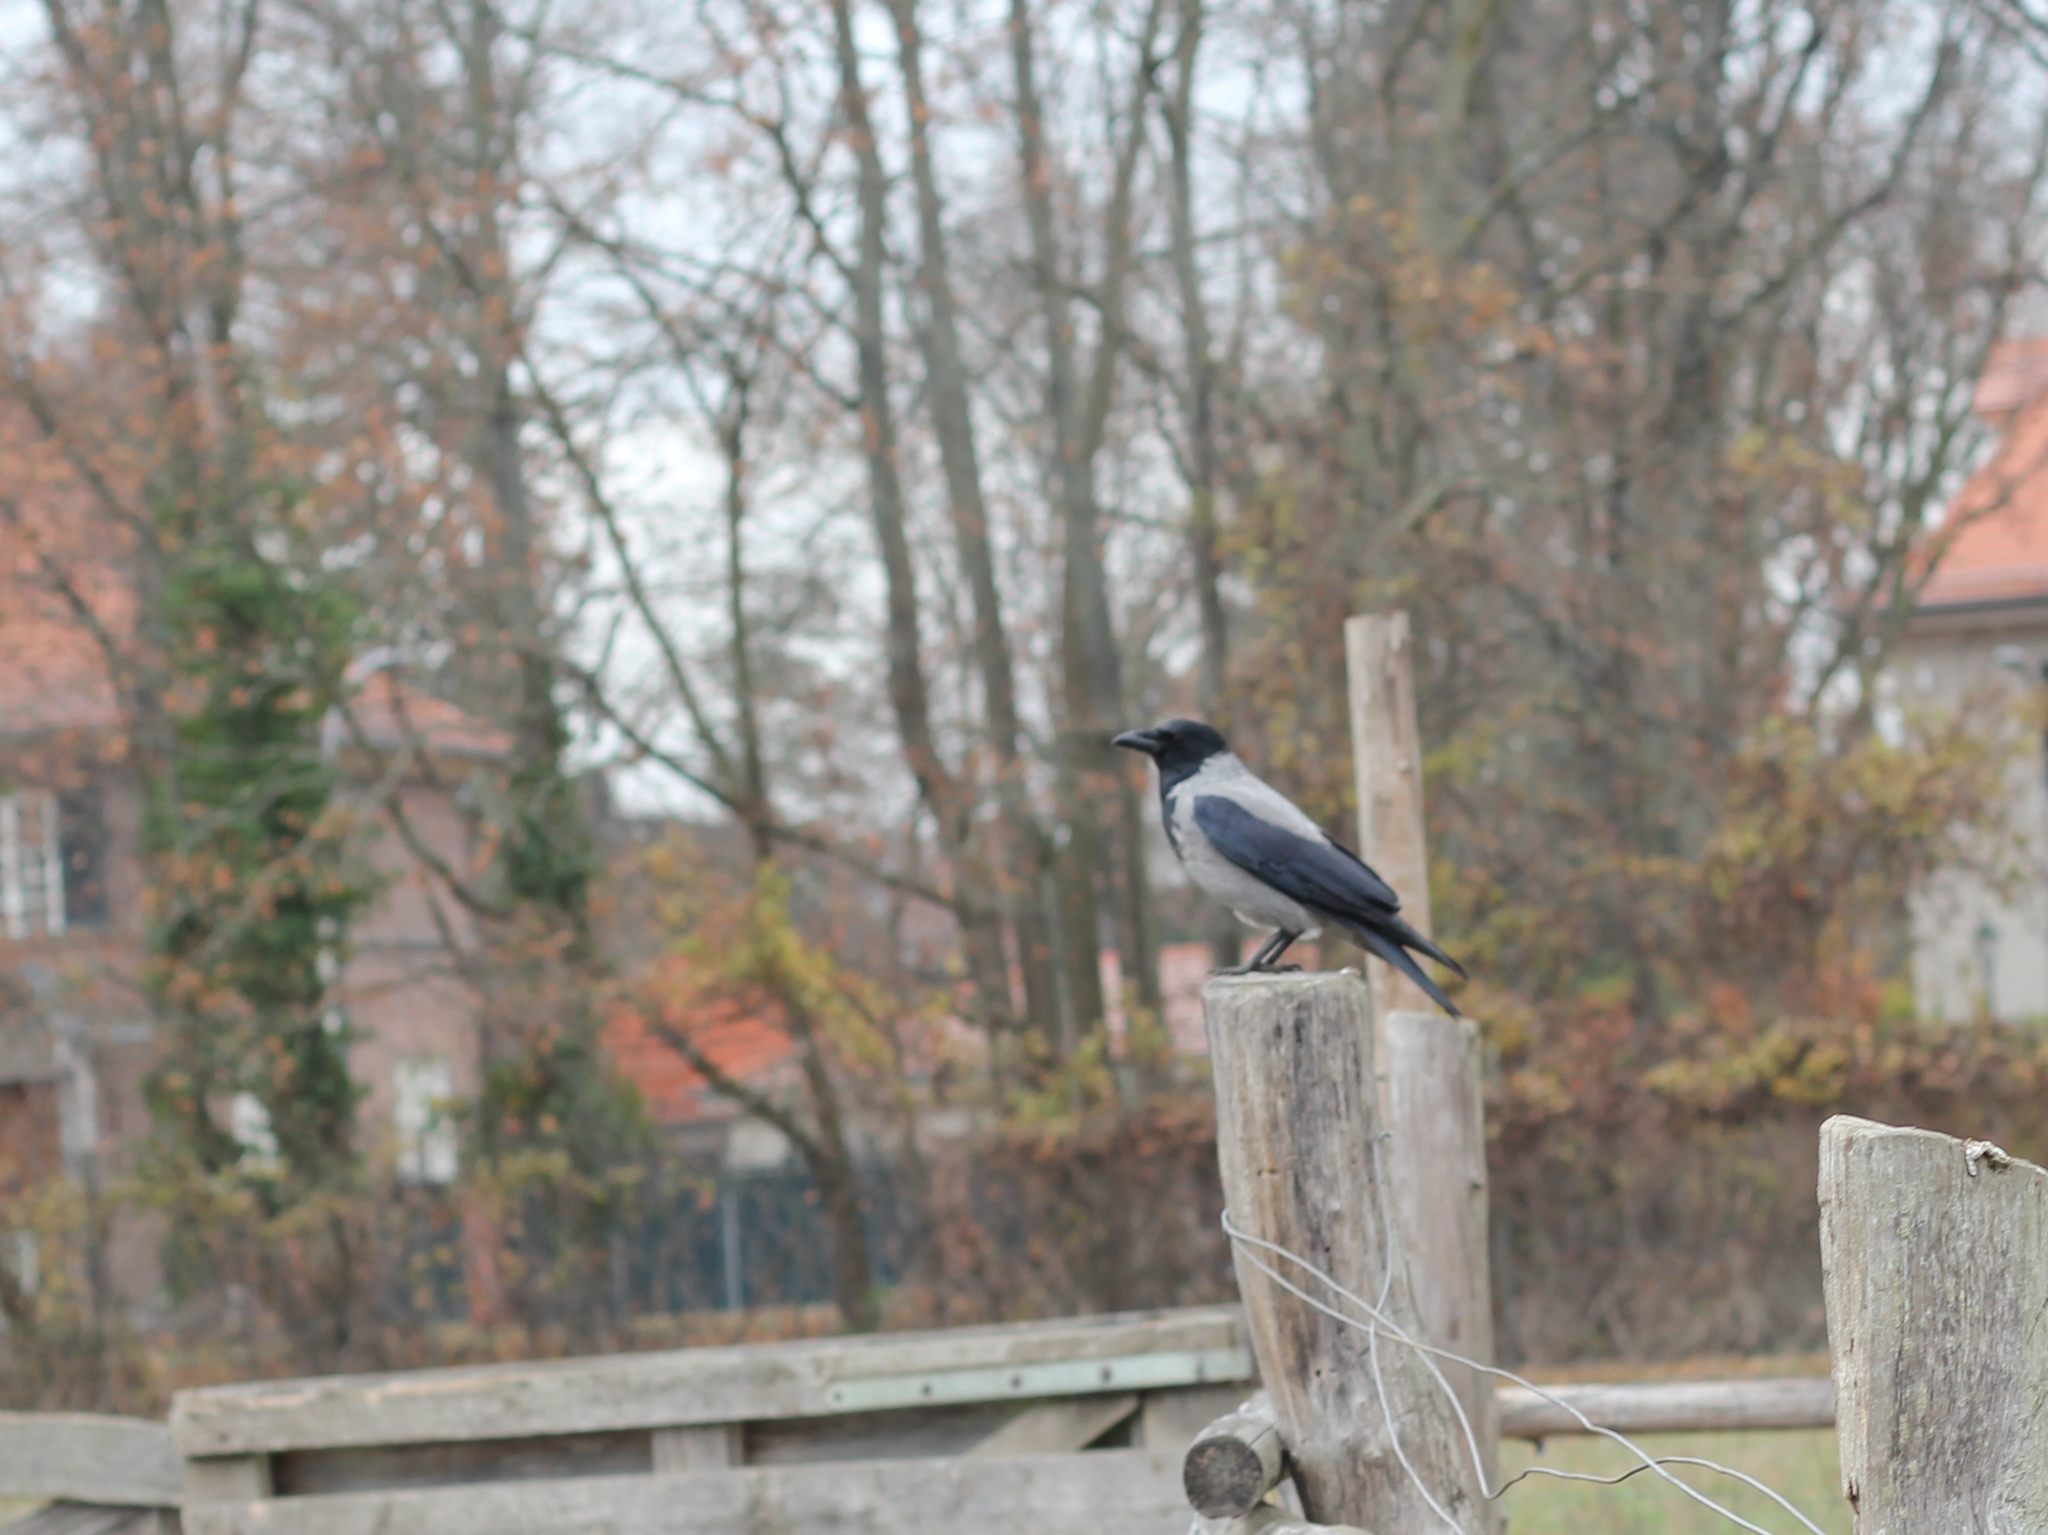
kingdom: Animalia
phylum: Chordata
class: Aves
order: Passeriformes
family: Corvidae
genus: Corvus
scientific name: Corvus cornix
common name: Hooded crow
